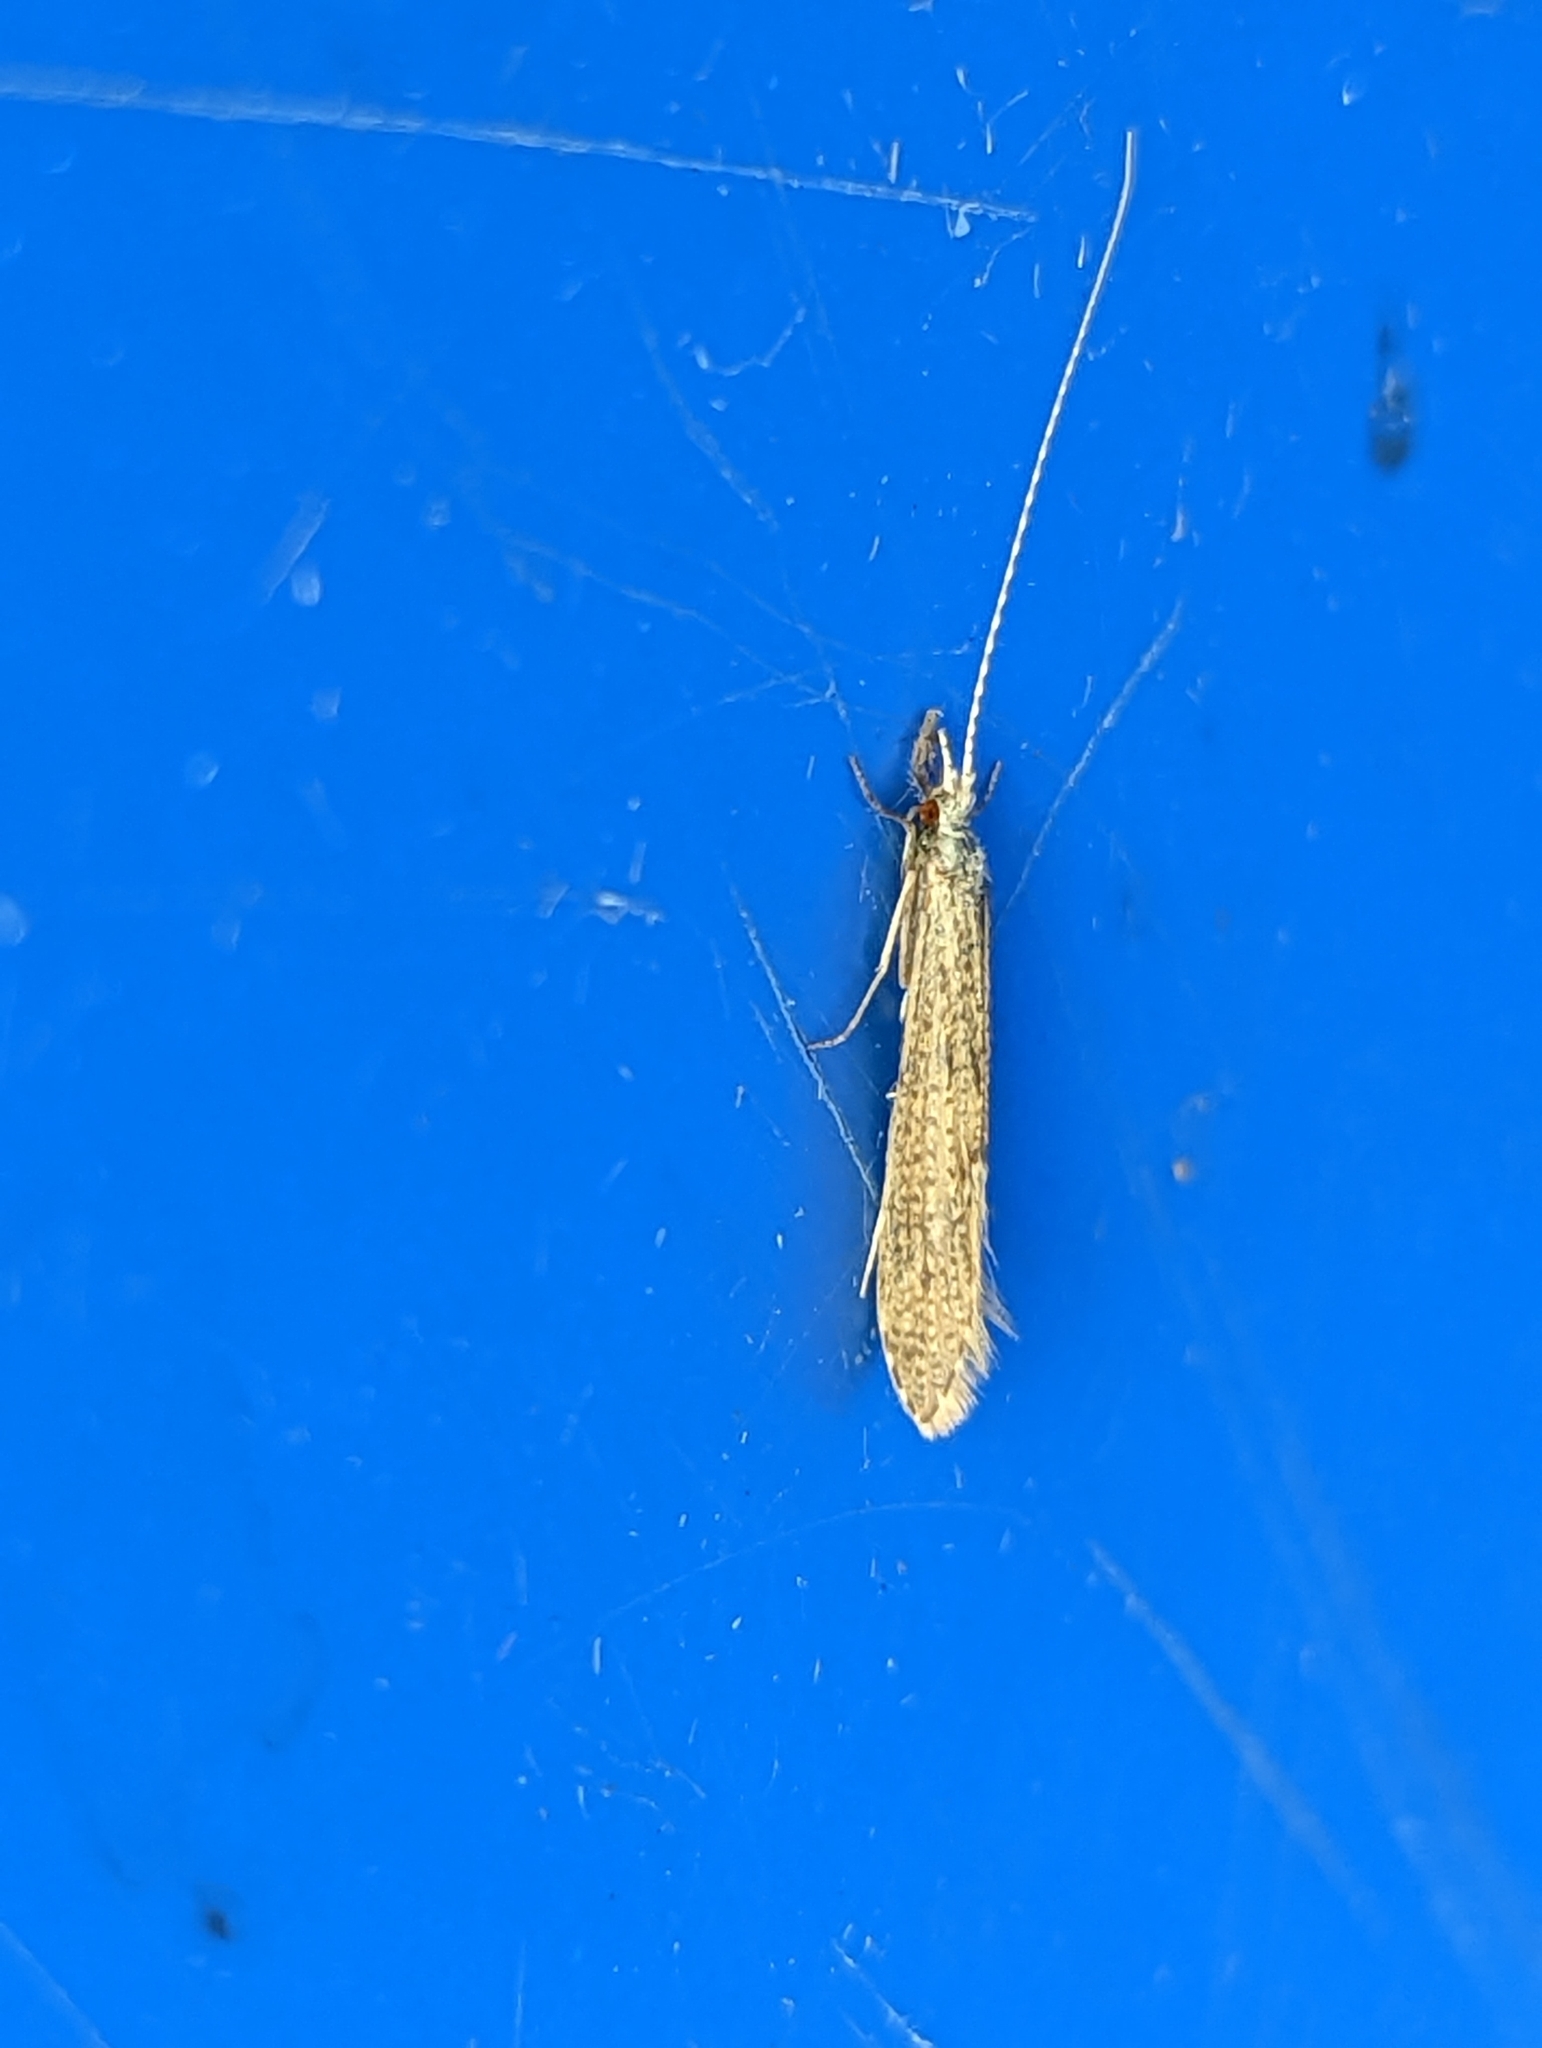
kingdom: Animalia
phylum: Arthropoda
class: Insecta
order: Trichoptera
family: Leptoceridae
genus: Leptocerus
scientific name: Leptocerus tineiformis
